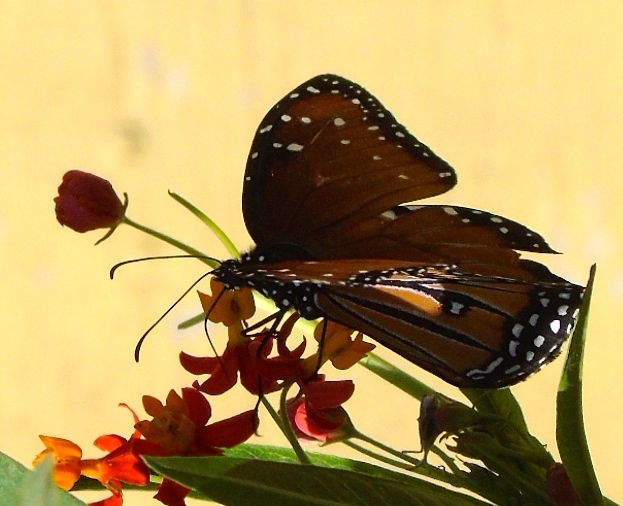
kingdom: Animalia
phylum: Arthropoda
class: Insecta
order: Lepidoptera
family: Nymphalidae
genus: Danaus
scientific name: Danaus gilippus
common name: Queen
